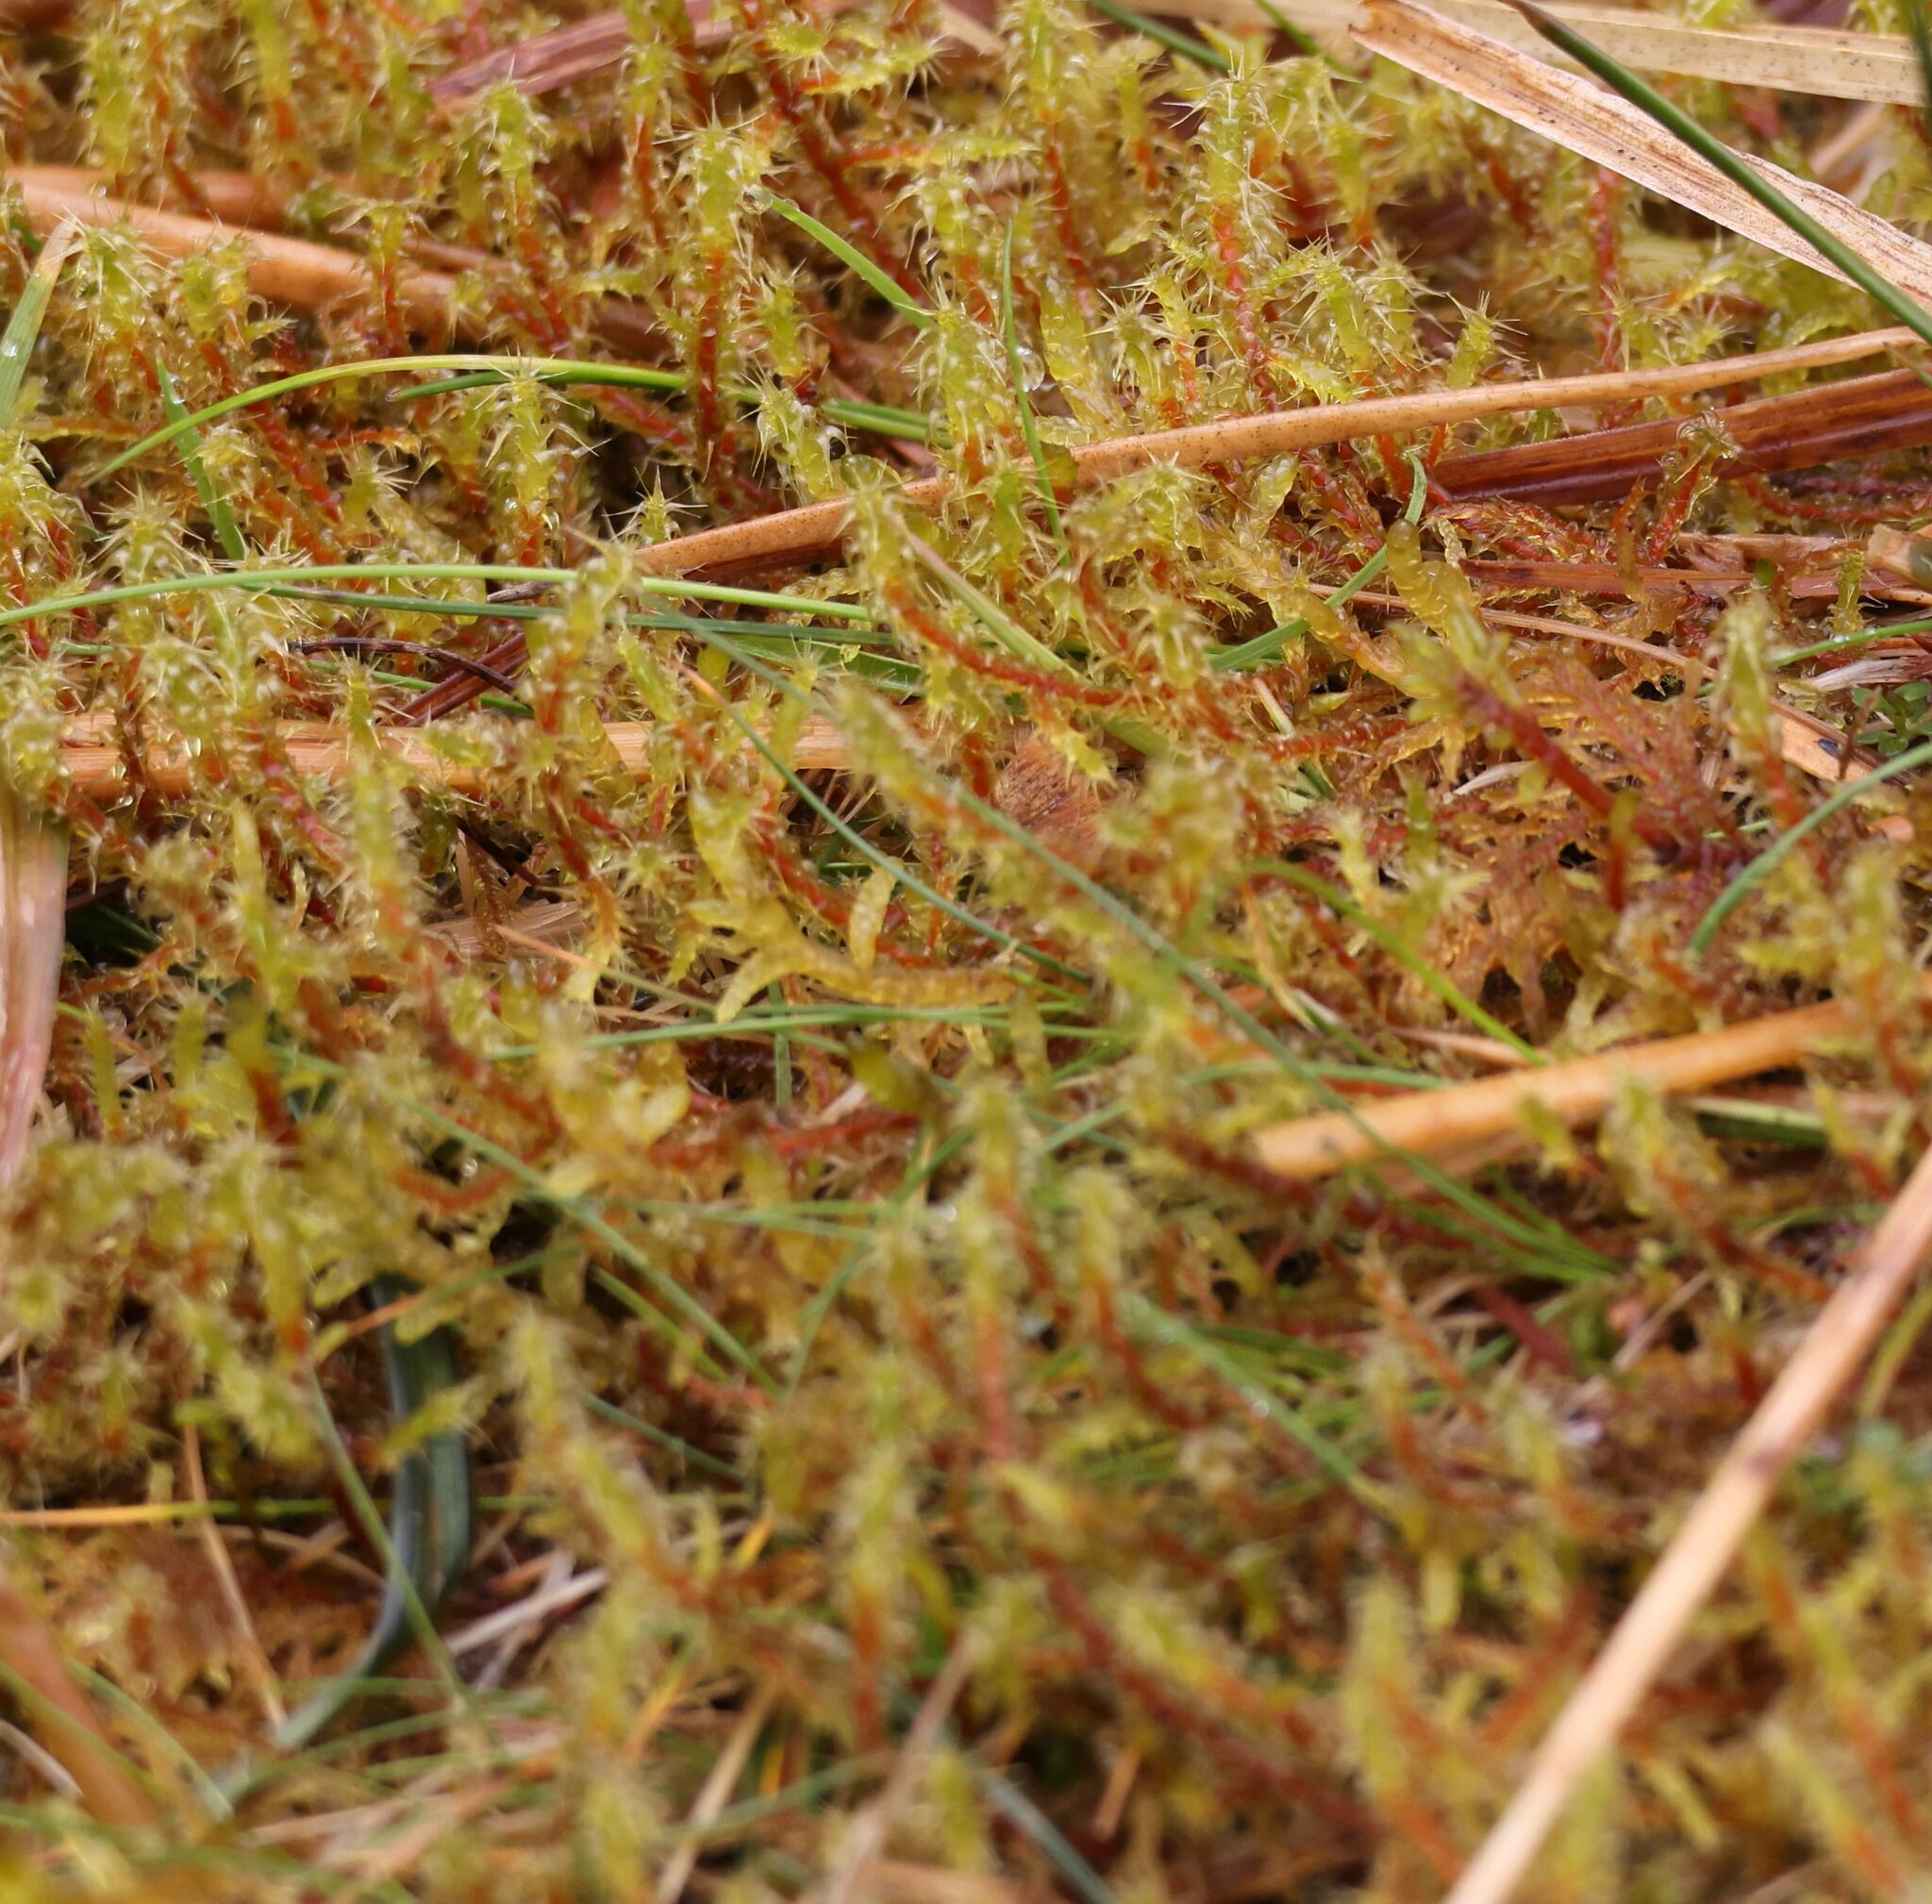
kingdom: Plantae
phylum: Bryophyta
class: Bryopsida
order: Hypnales
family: Hylocomiaceae
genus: Rhytidiadelphus
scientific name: Rhytidiadelphus squarrosus
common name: Springy turf-moss
